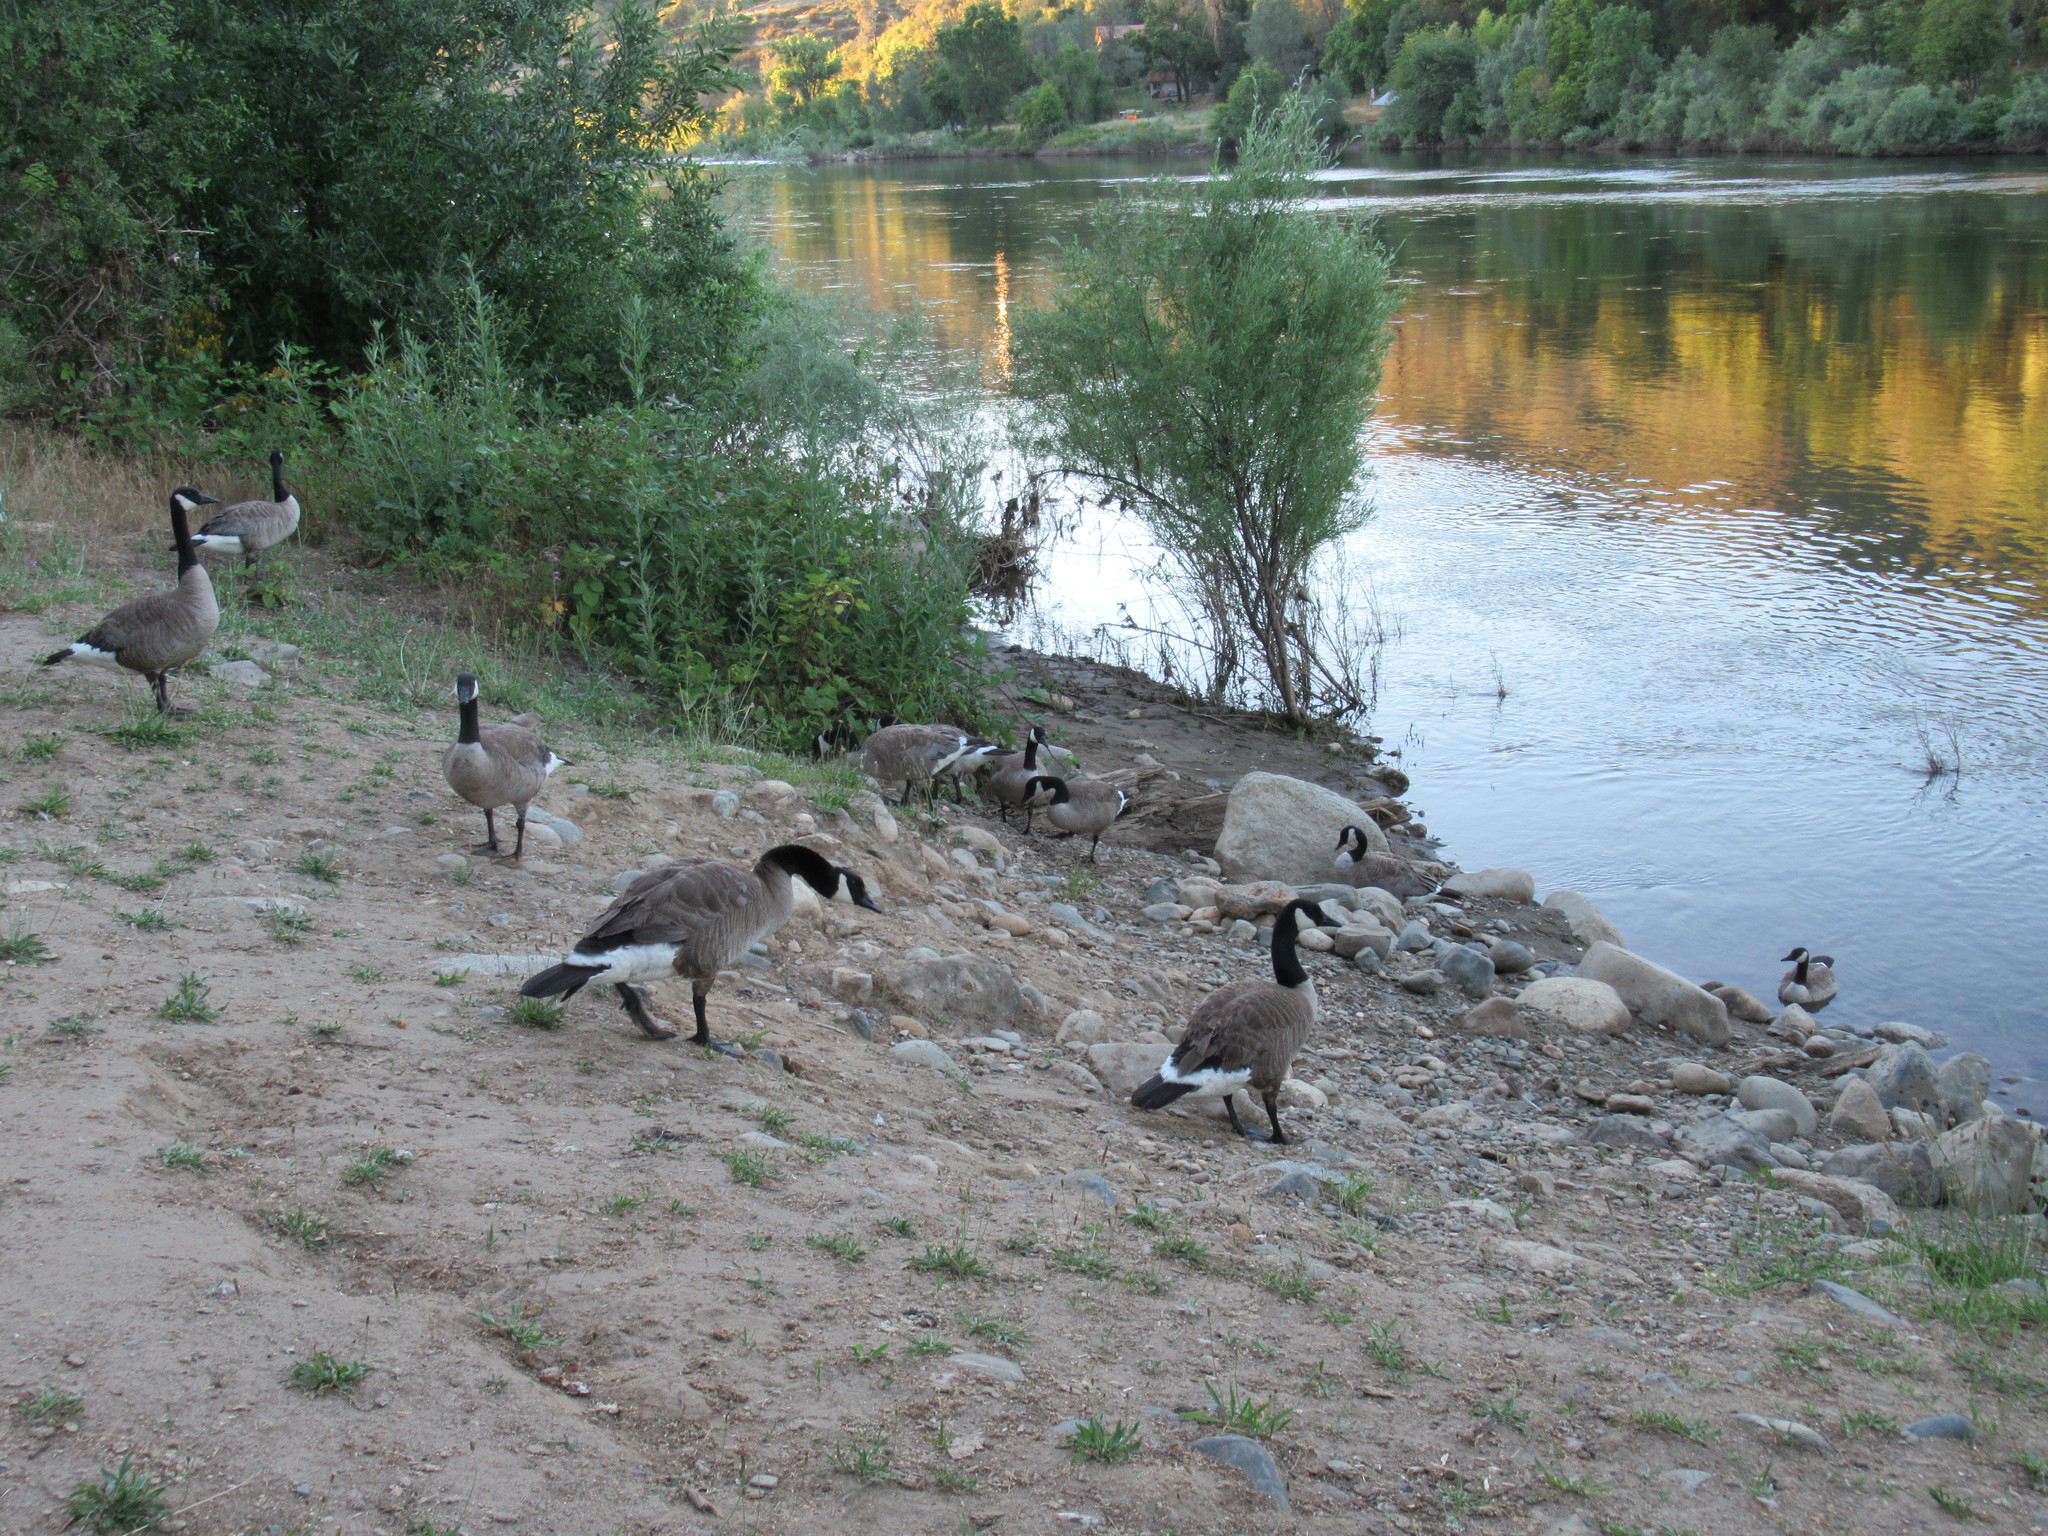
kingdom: Animalia
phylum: Chordata
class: Aves
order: Anseriformes
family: Anatidae
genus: Branta
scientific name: Branta canadensis
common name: Canada goose
